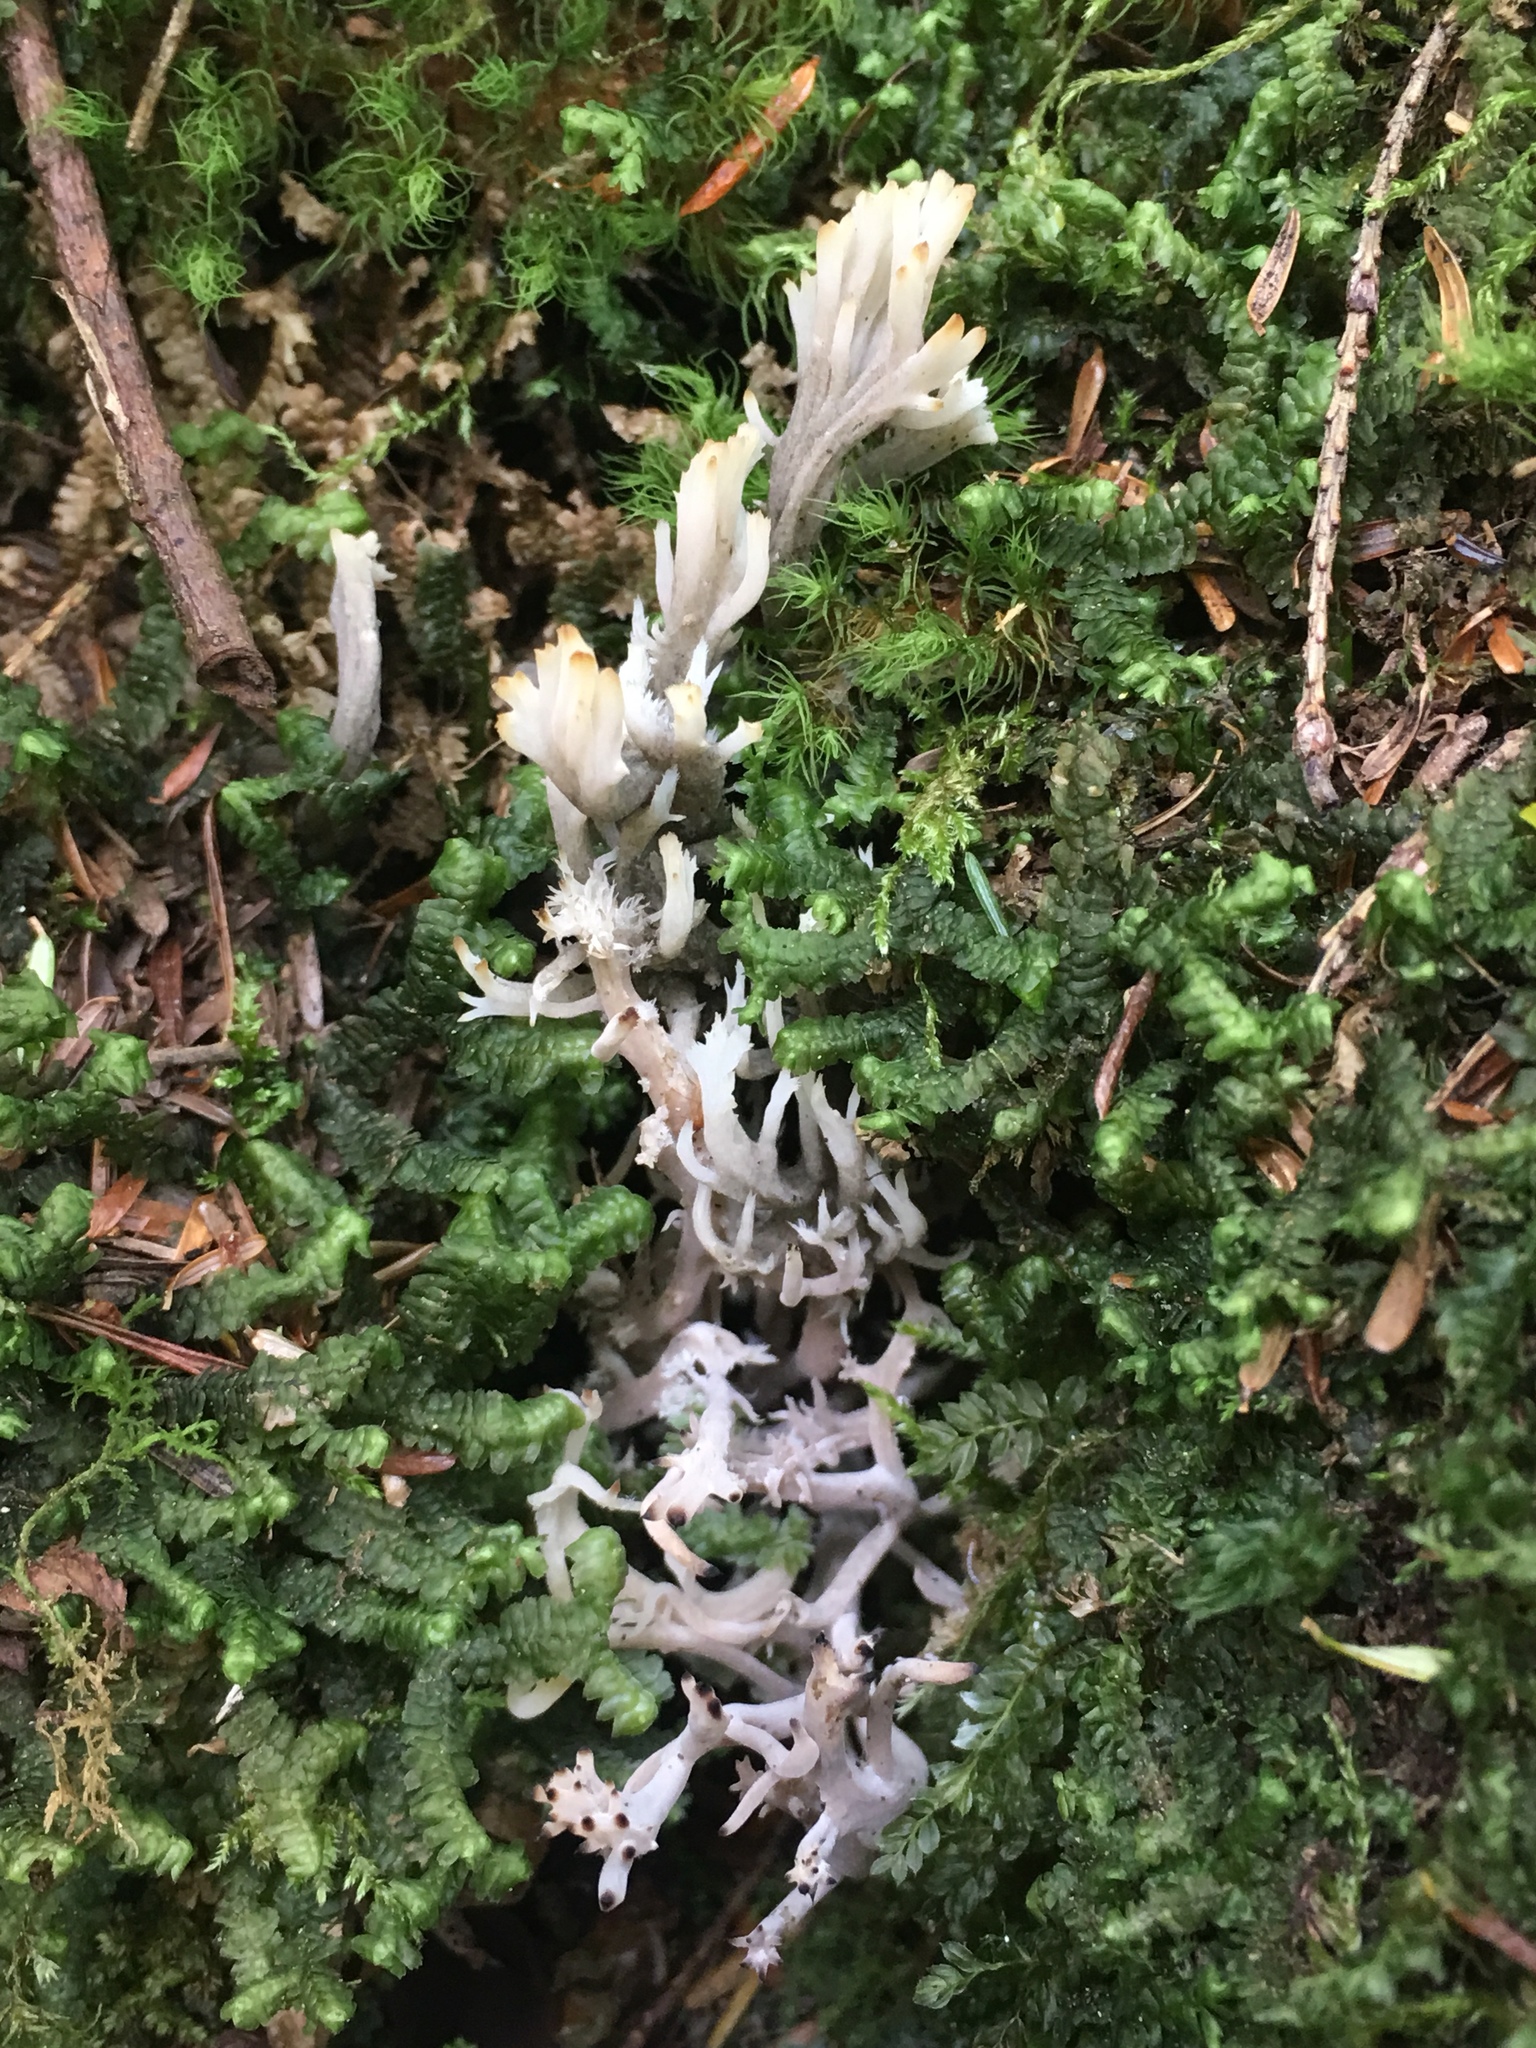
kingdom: Fungi
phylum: Basidiomycota
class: Agaricomycetes
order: Cantharellales
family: Hydnaceae
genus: Clavulina
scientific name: Clavulina coralloides
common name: Crested coral
